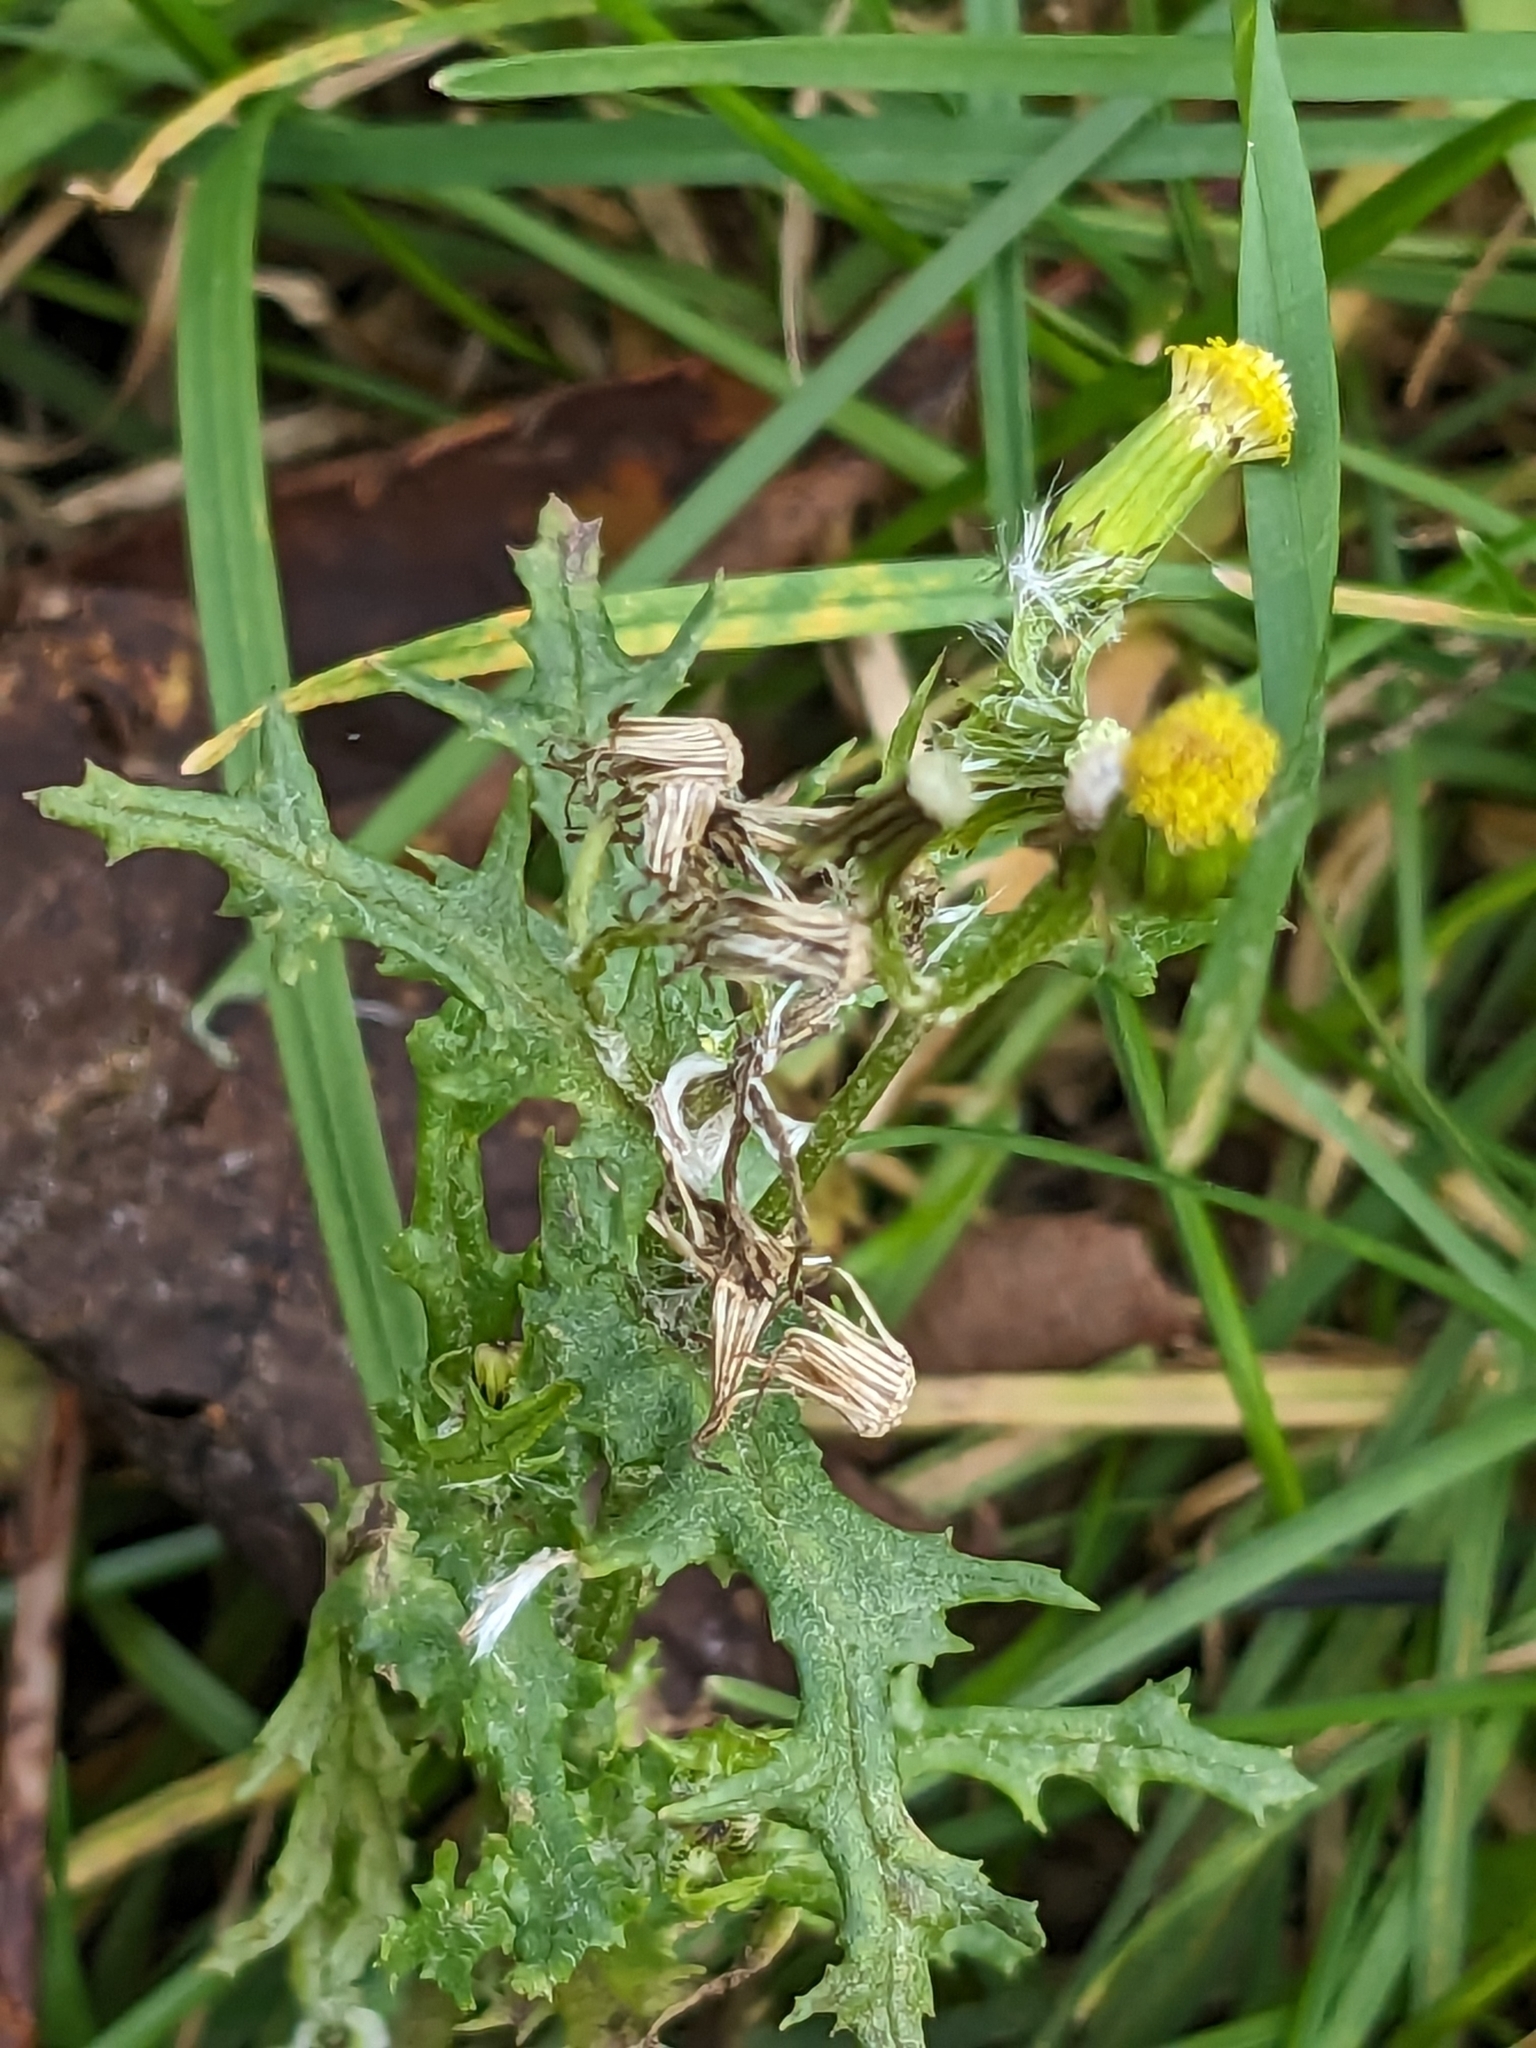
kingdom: Plantae
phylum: Tracheophyta
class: Magnoliopsida
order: Asterales
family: Asteraceae
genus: Senecio
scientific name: Senecio vulgaris
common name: Old-man-in-the-spring
